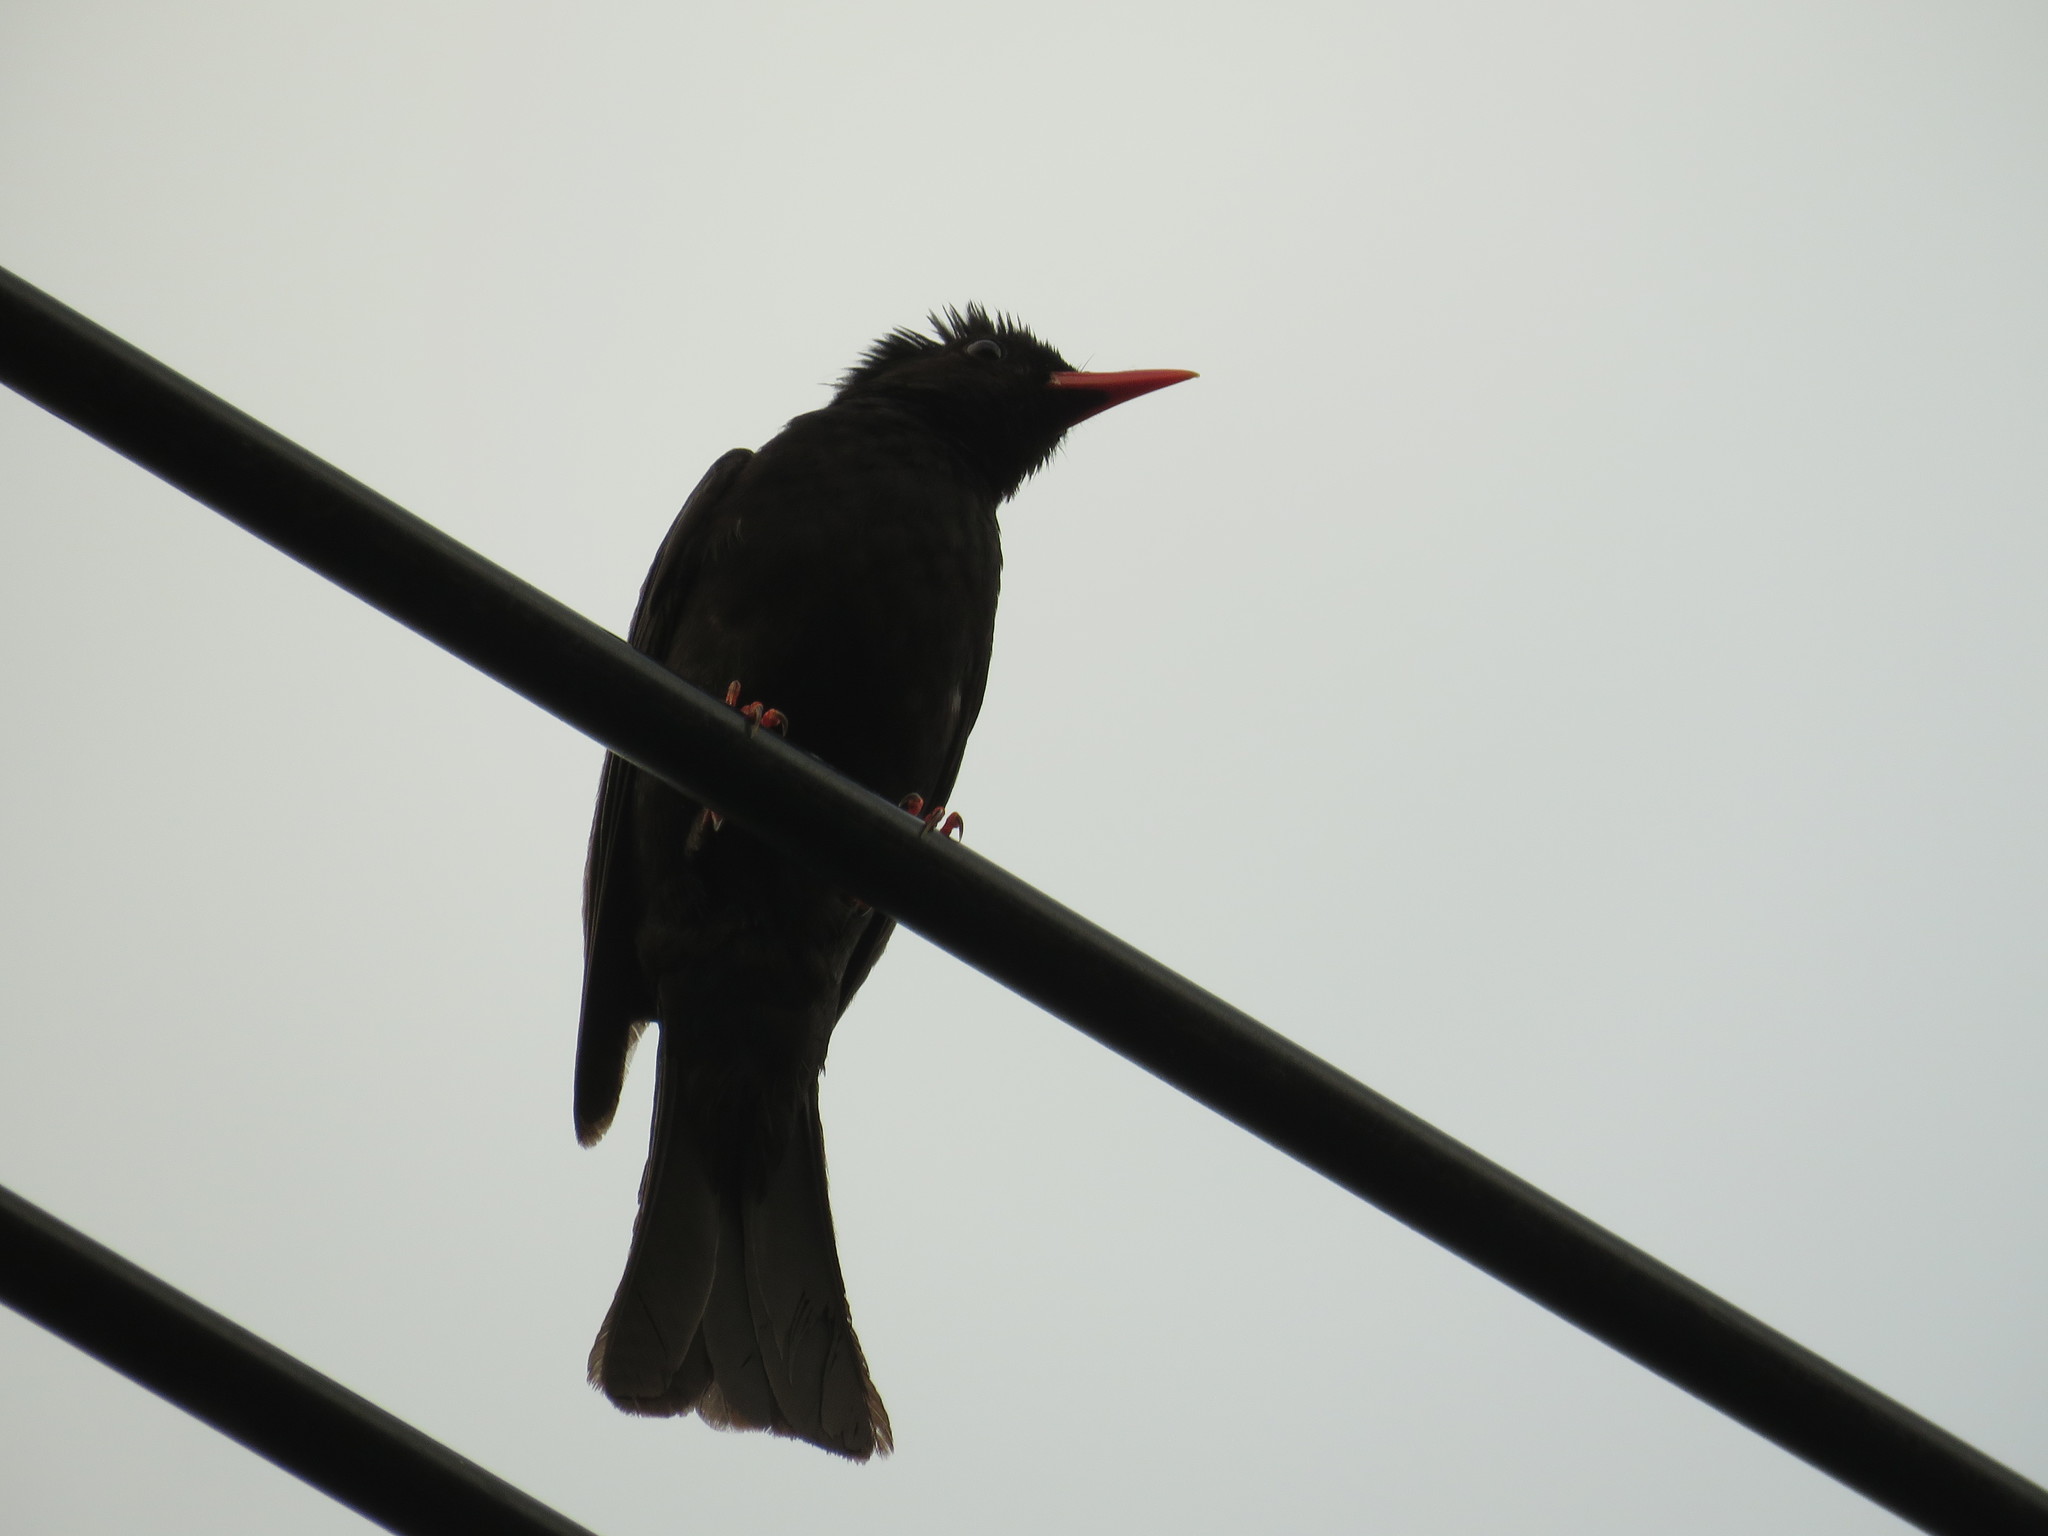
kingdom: Animalia
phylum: Chordata
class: Aves
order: Passeriformes
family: Pycnonotidae
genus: Hypsipetes
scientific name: Hypsipetes leucocephalus
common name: Black bulbul
